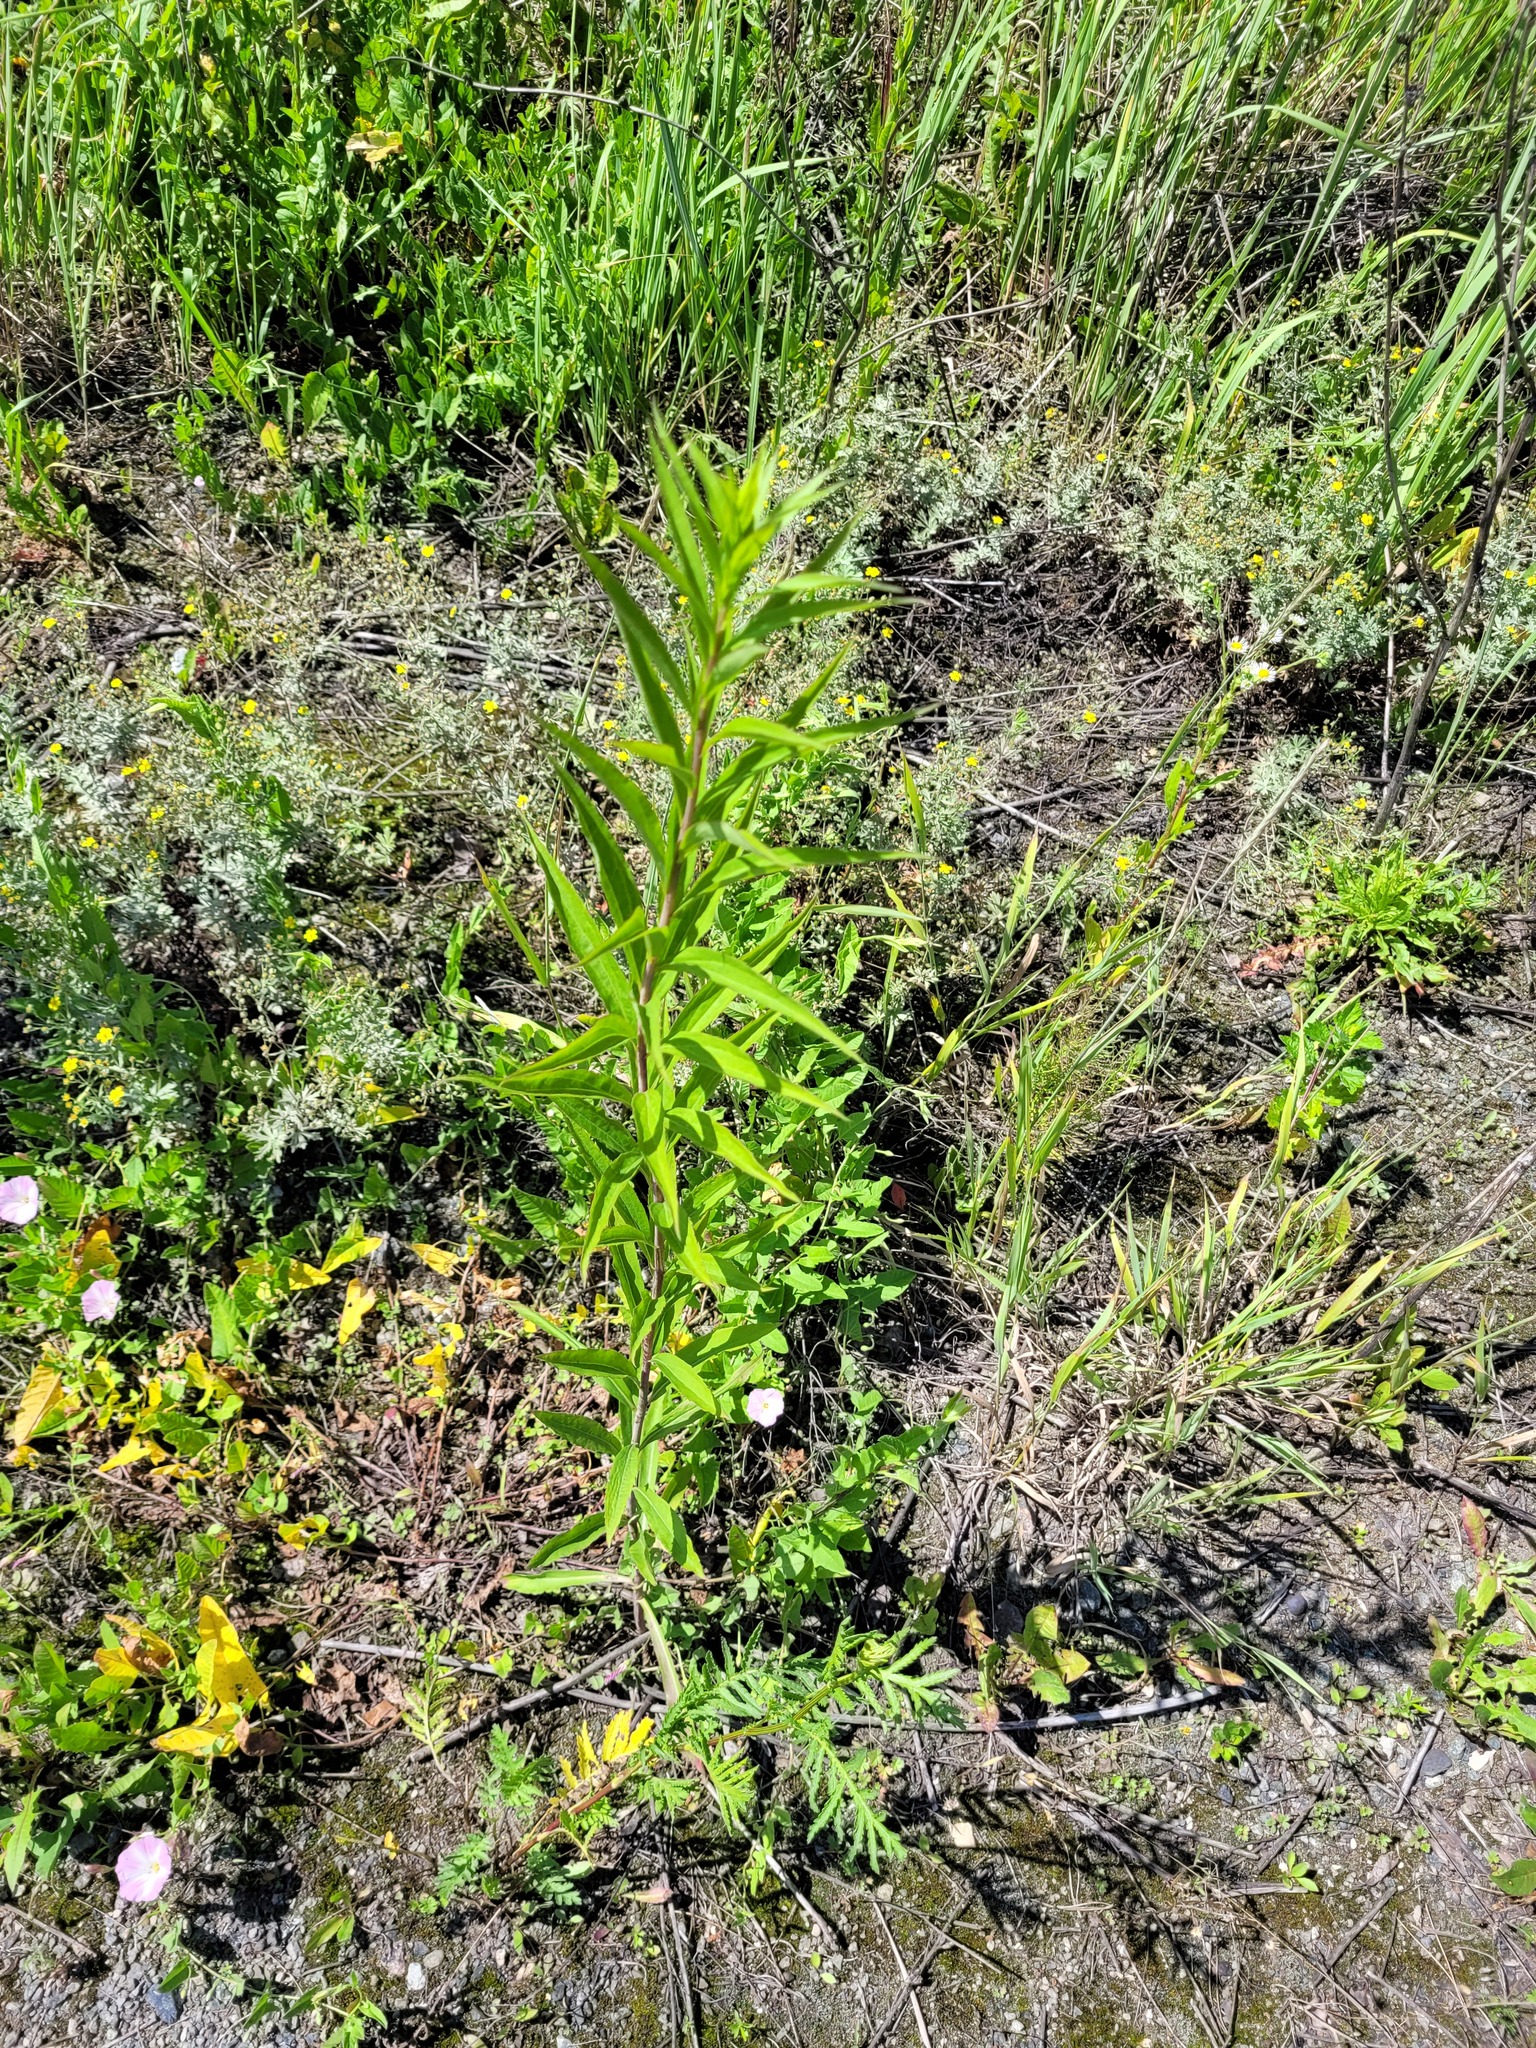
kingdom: Plantae
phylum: Tracheophyta
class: Magnoliopsida
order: Asterales
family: Asteraceae
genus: Solidago
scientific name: Solidago gigantea
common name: Giant goldenrod
